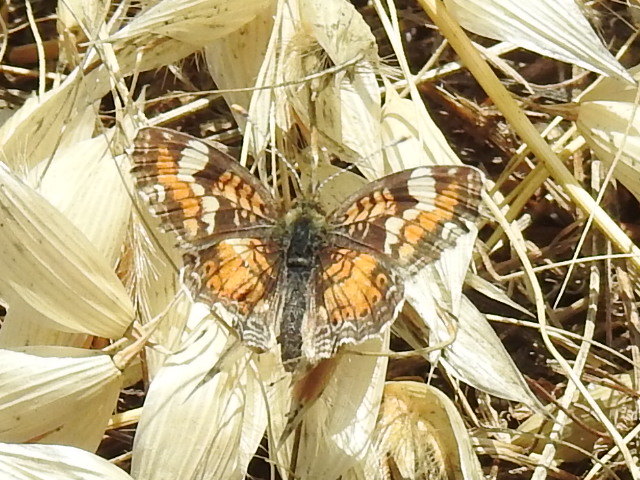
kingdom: Animalia
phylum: Arthropoda
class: Insecta
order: Lepidoptera
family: Nymphalidae
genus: Phyciodes
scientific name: Phyciodes phaon
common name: Phaon crescent
